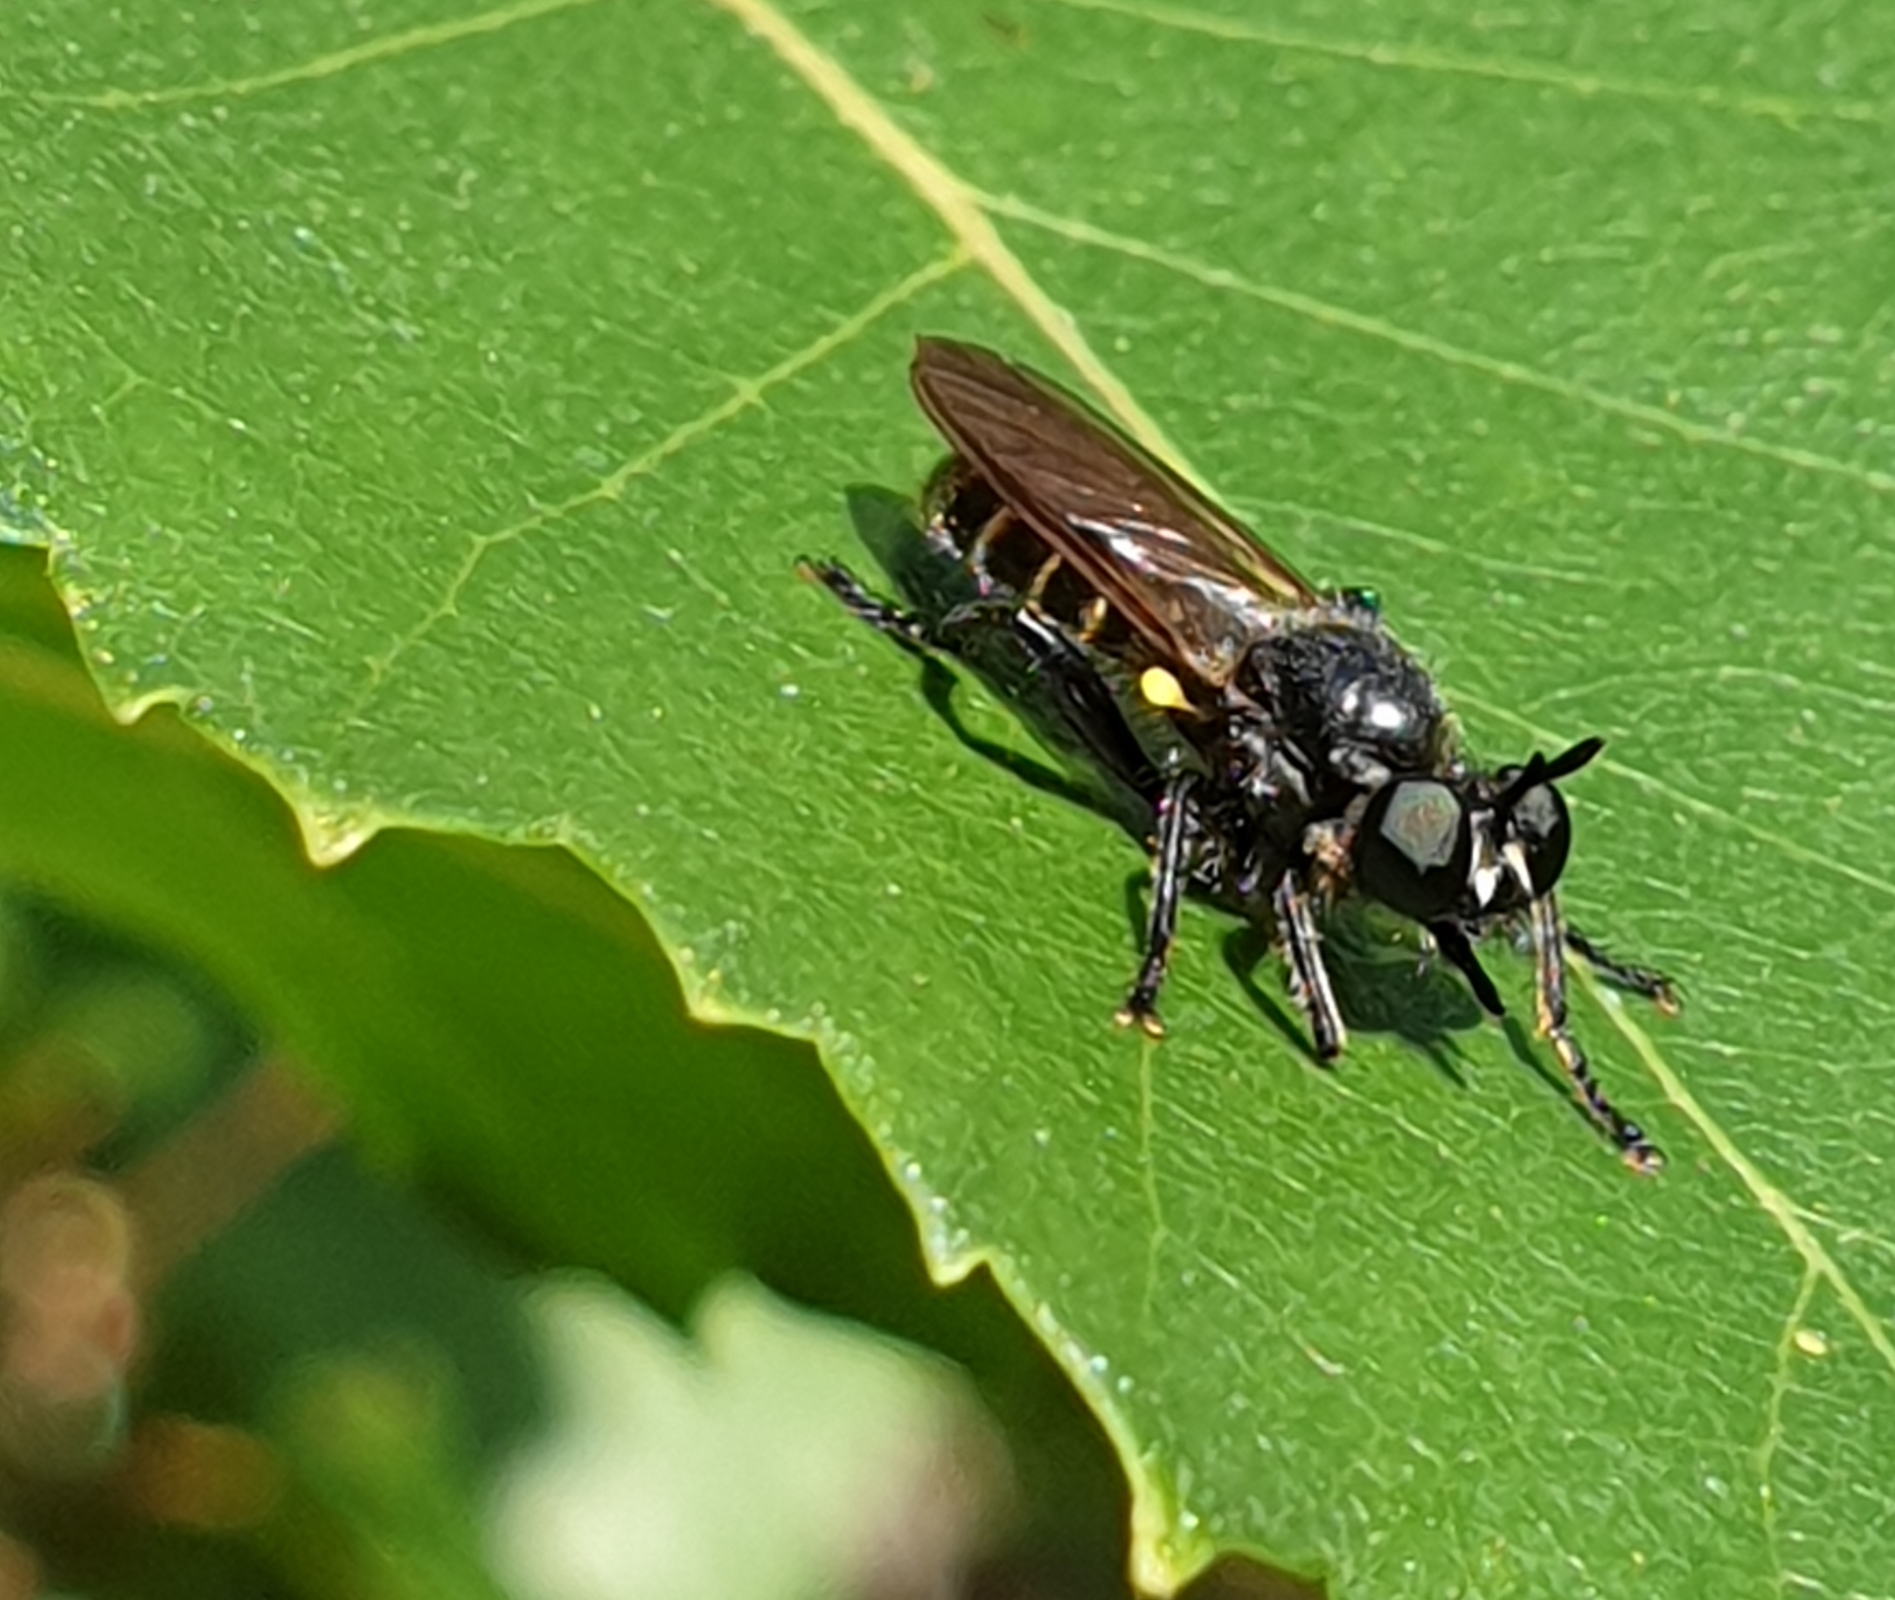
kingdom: Animalia
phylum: Arthropoda
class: Insecta
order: Diptera
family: Asilidae
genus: Lamyra
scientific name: Lamyra marginata
